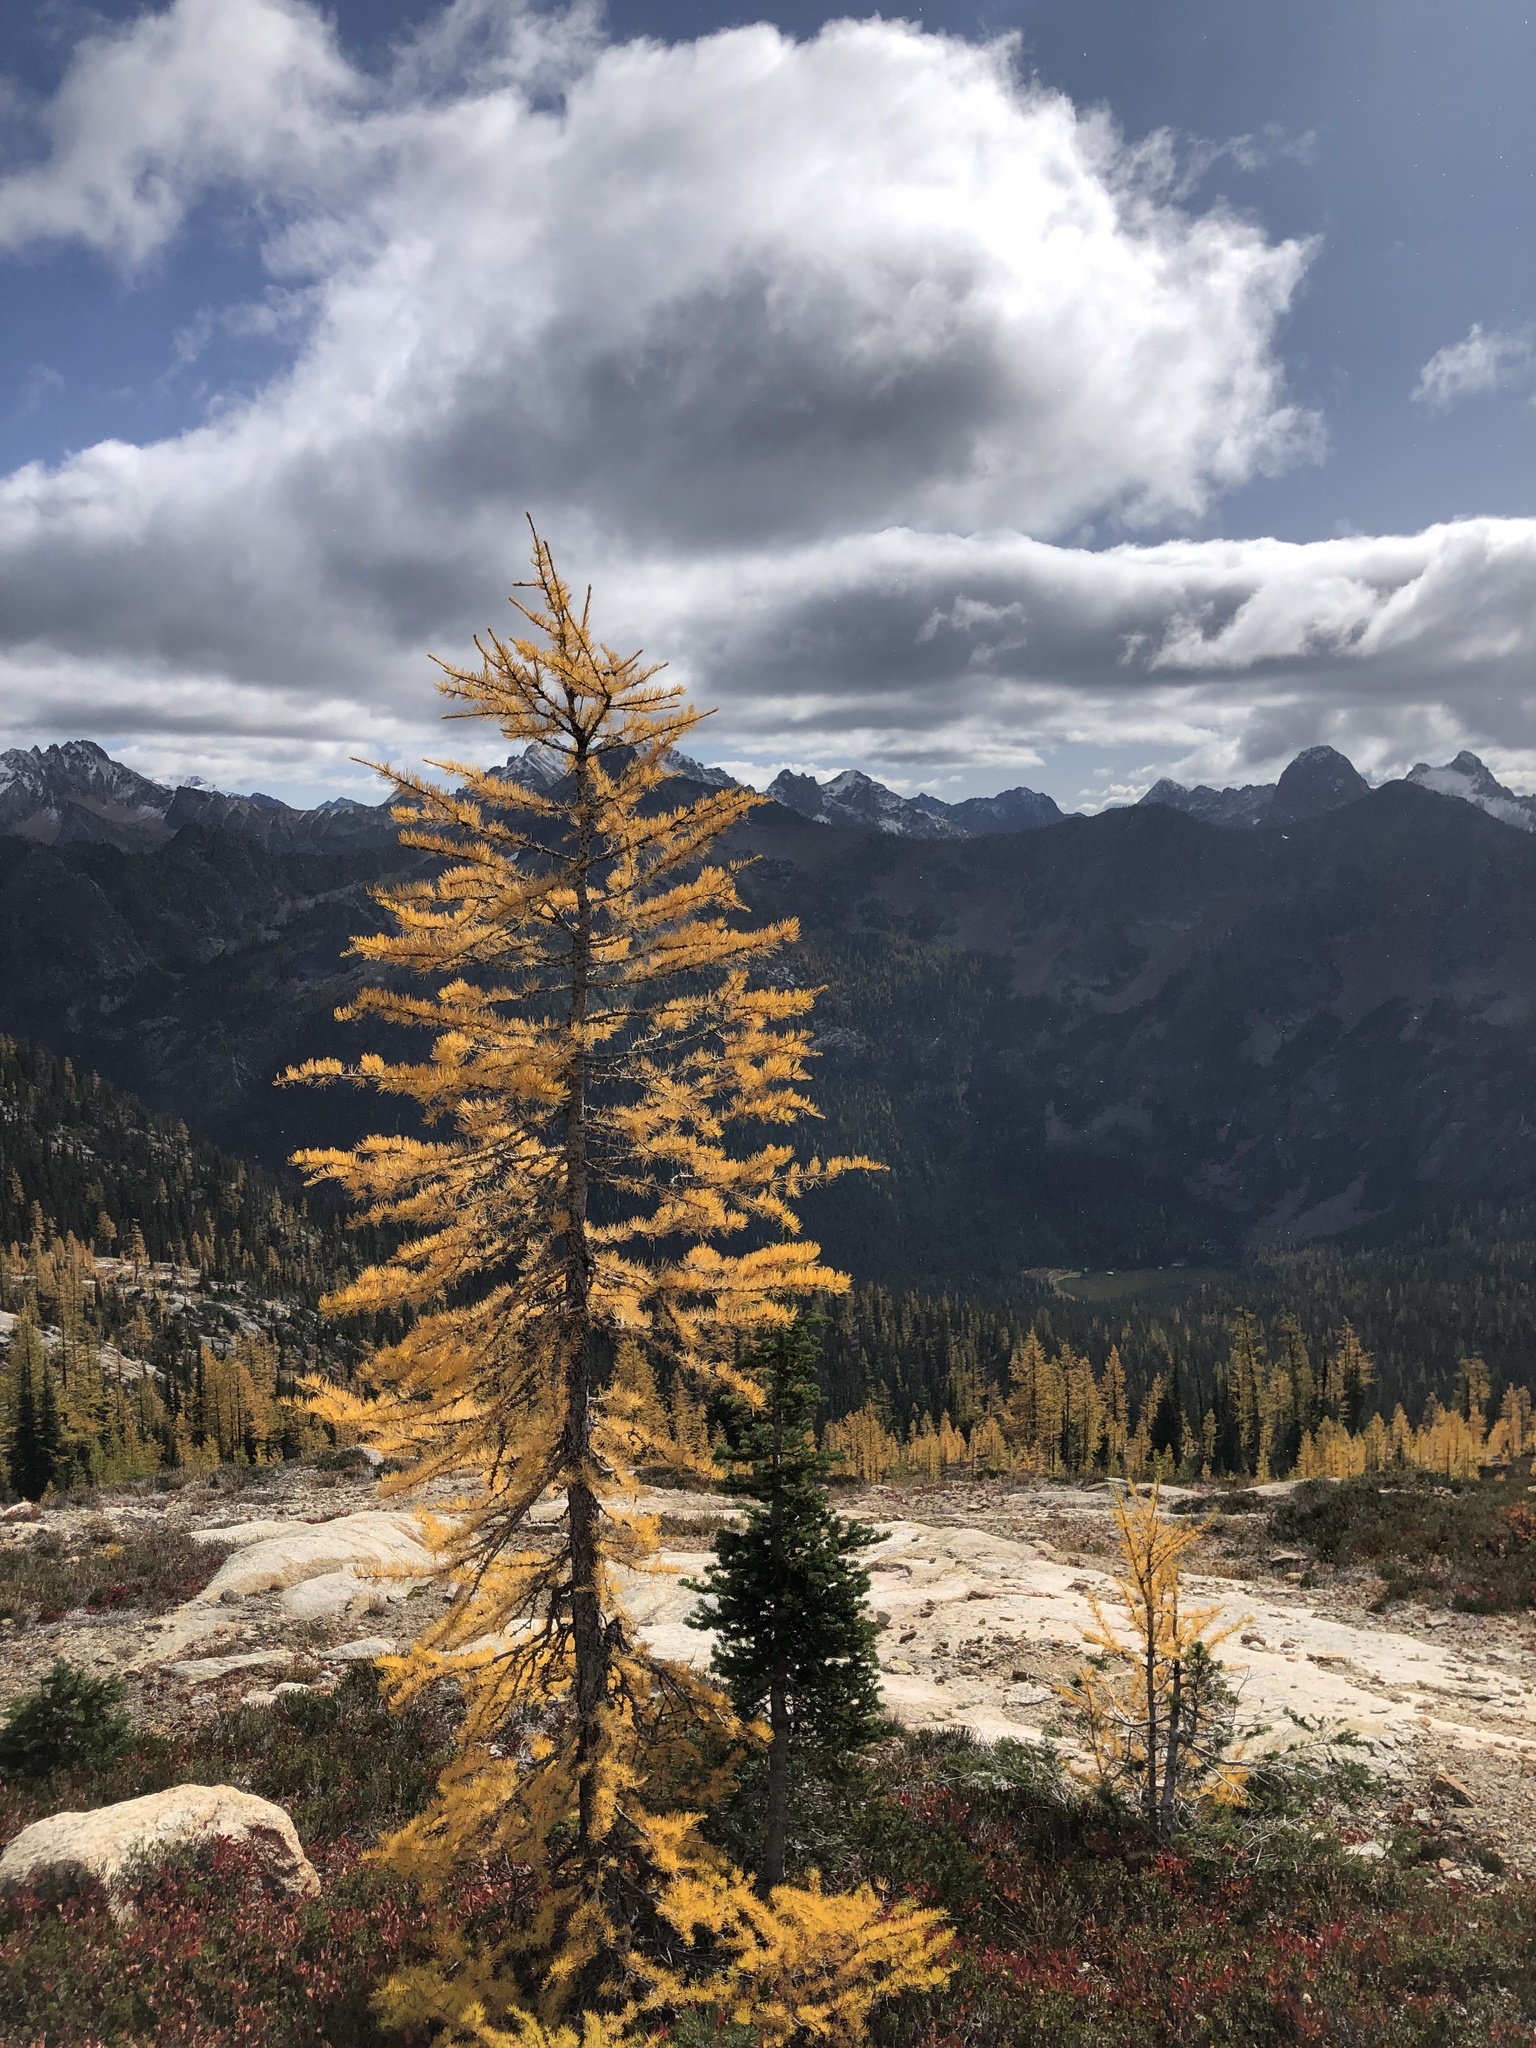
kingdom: Plantae
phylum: Tracheophyta
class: Pinopsida
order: Pinales
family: Pinaceae
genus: Larix
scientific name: Larix lyallii
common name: Alpine larch
